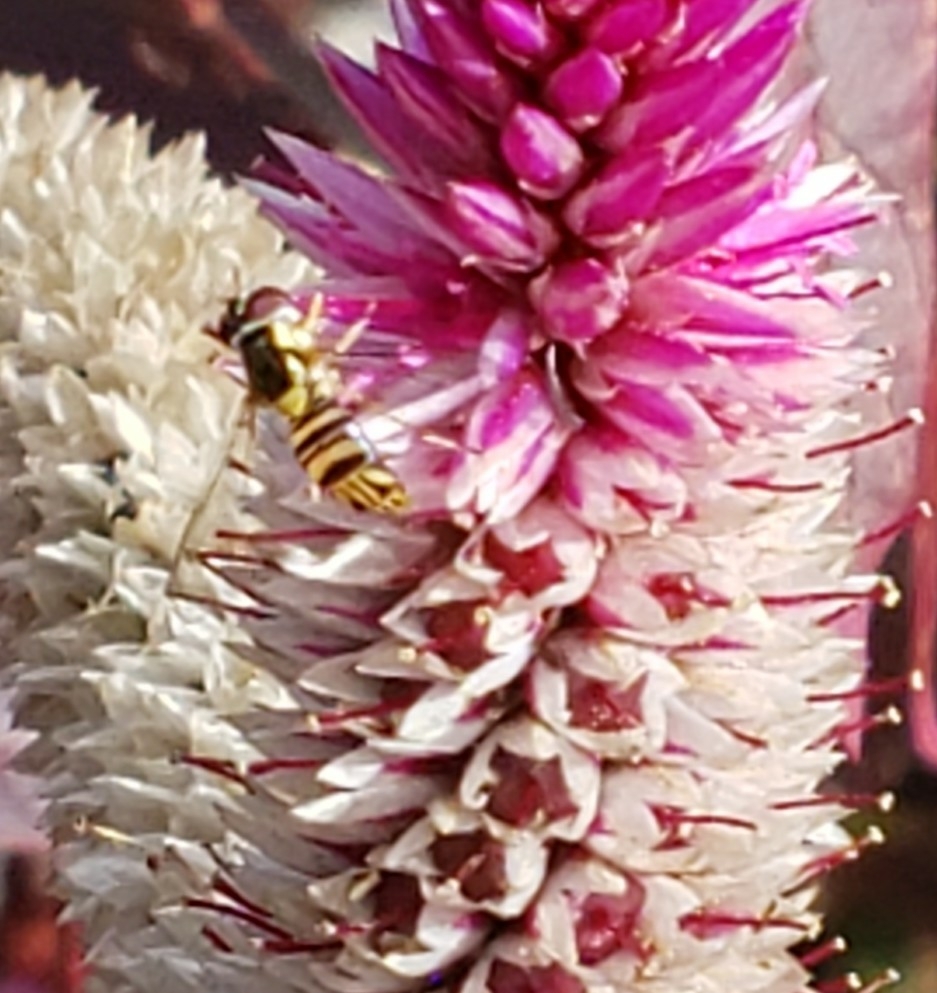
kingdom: Animalia
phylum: Arthropoda
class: Insecta
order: Diptera
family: Syrphidae
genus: Allograpta
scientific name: Allograpta obliqua
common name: Common oblique syrphid
